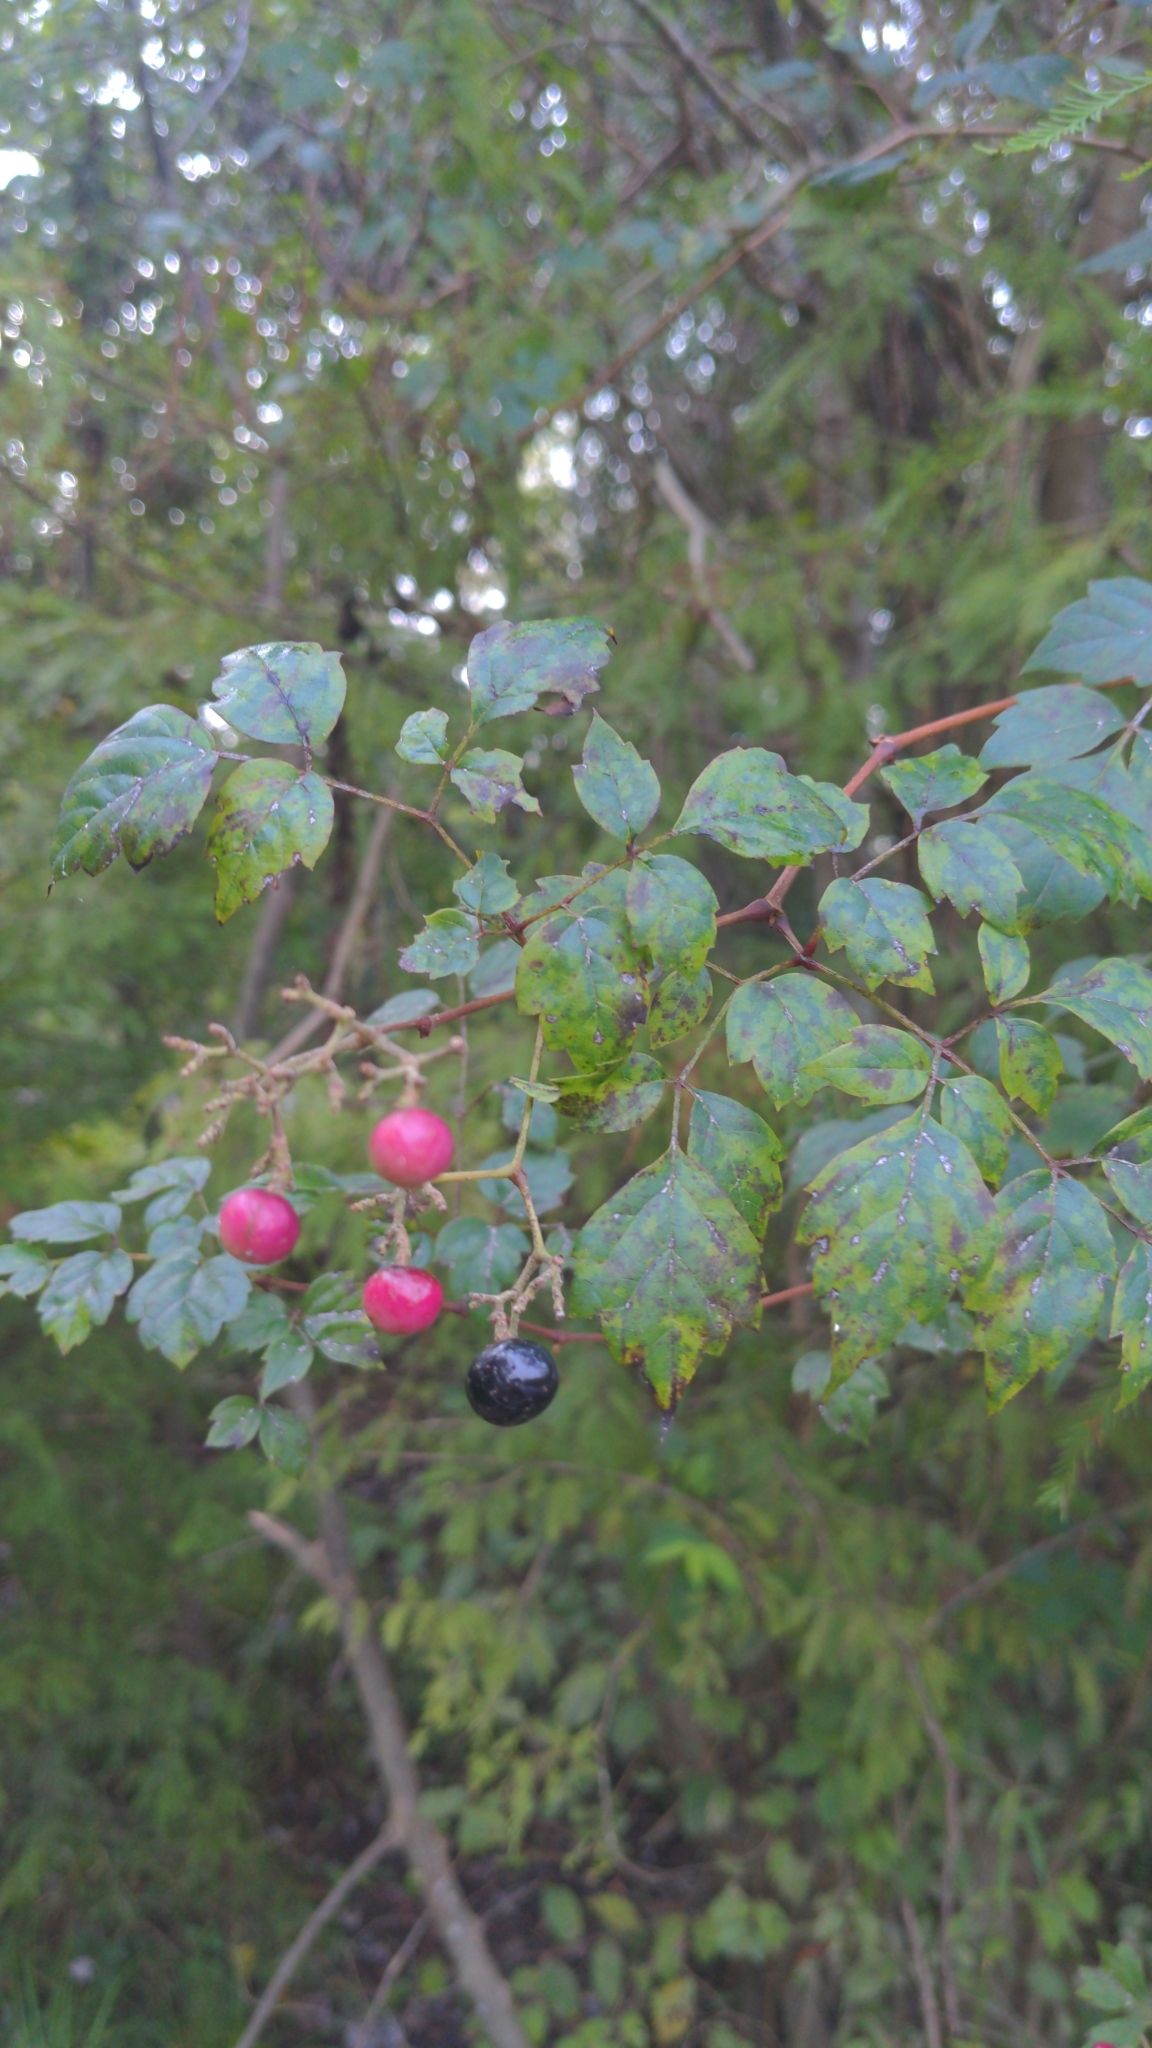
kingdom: Plantae
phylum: Tracheophyta
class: Magnoliopsida
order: Vitales
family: Vitaceae
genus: Nekemias
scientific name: Nekemias arborea
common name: Peppervine
